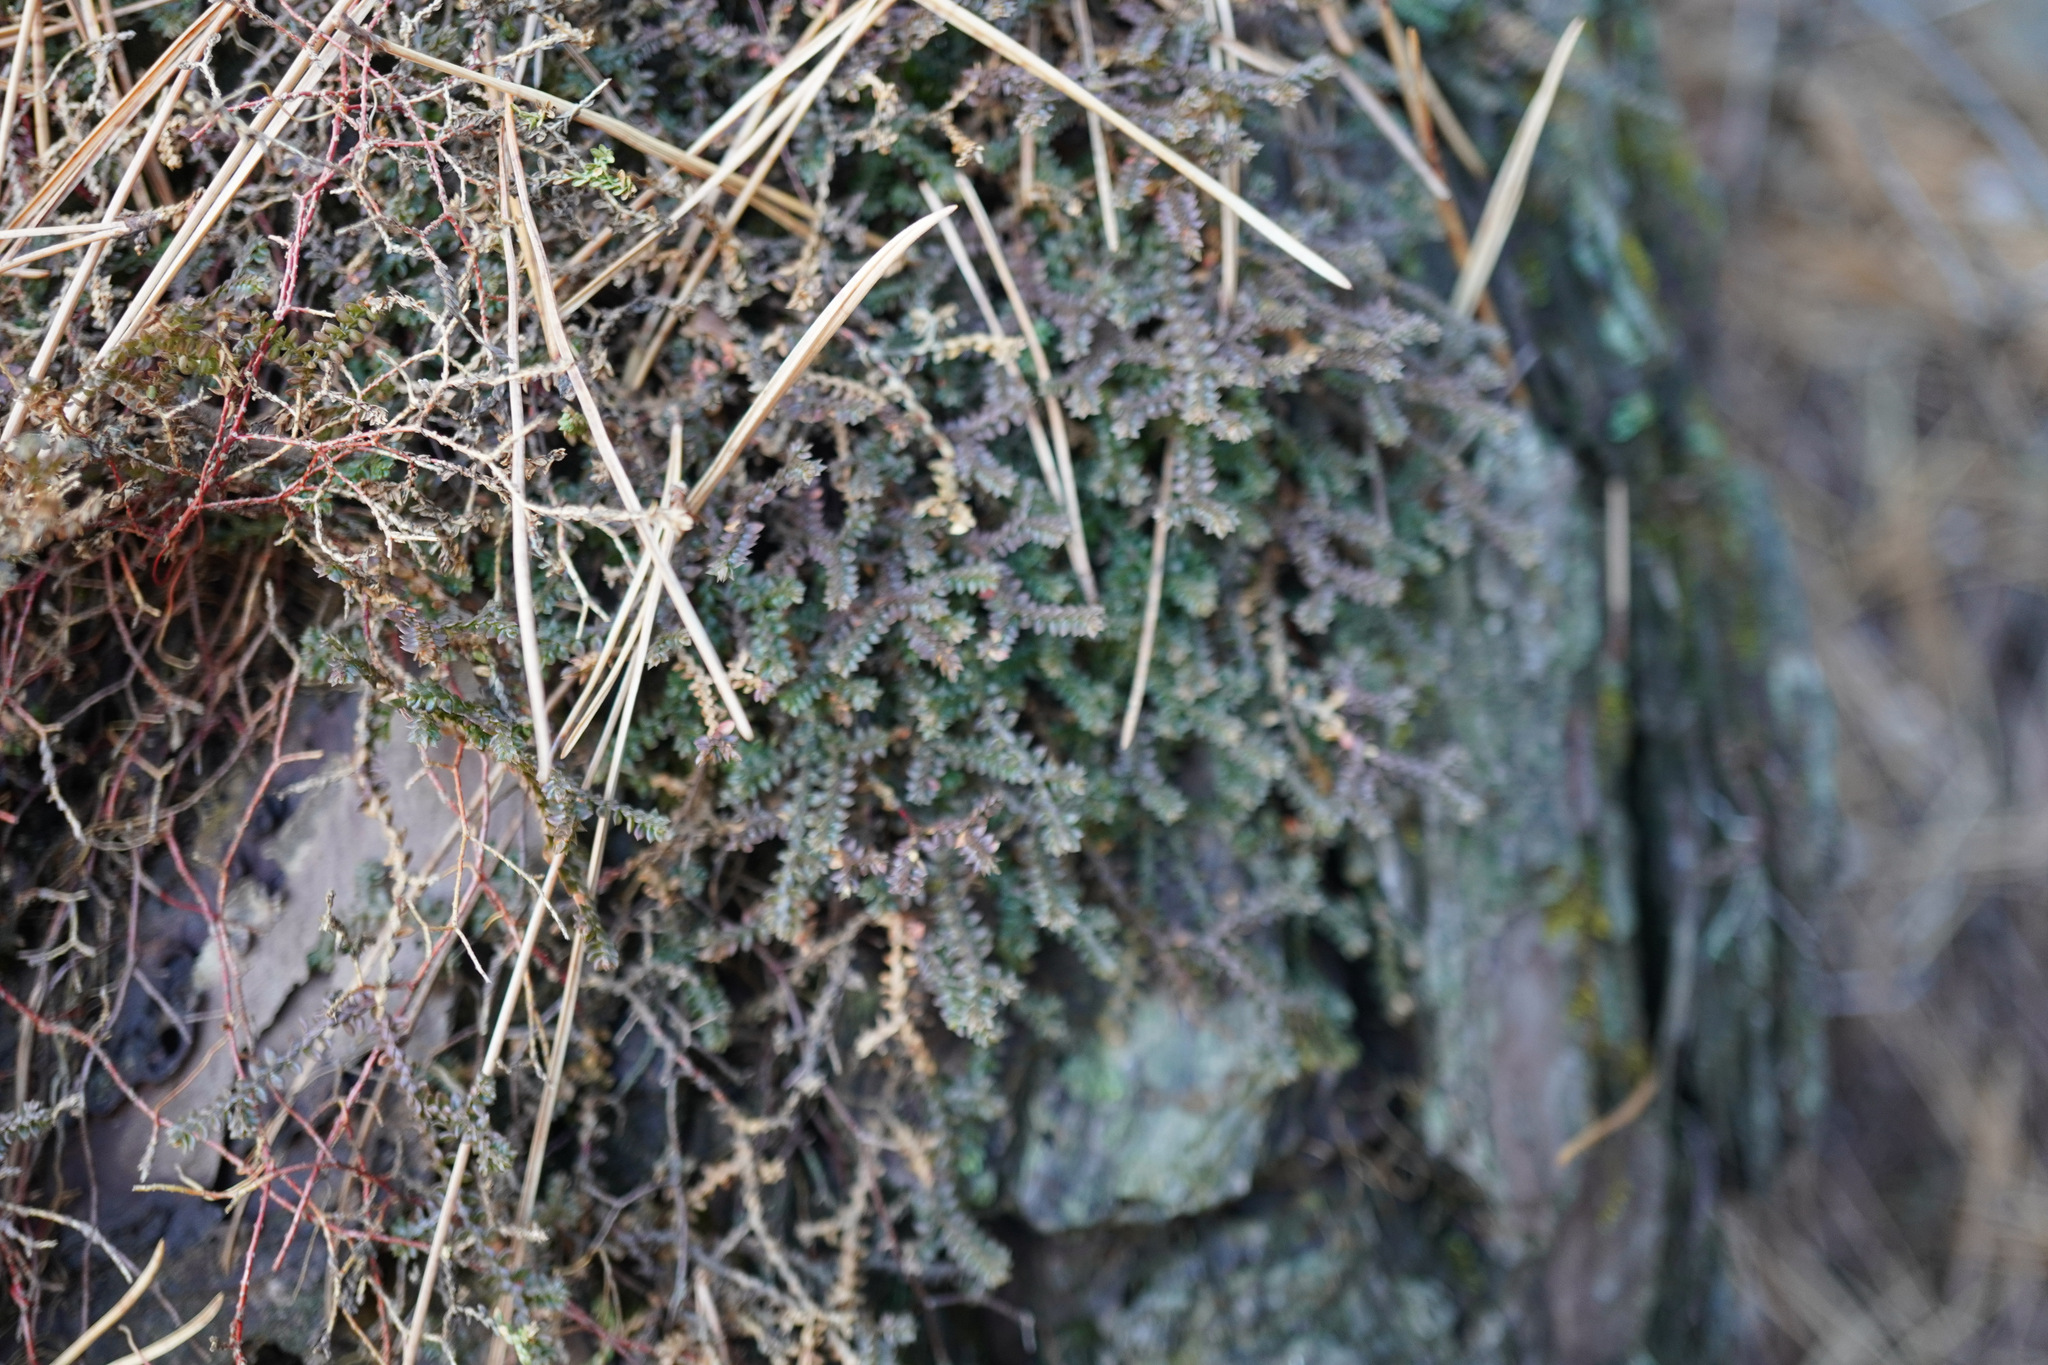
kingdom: Plantae
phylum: Tracheophyta
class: Lycopodiopsida
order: Selaginellales
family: Selaginellaceae
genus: Selaginella
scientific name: Selaginella rossii
